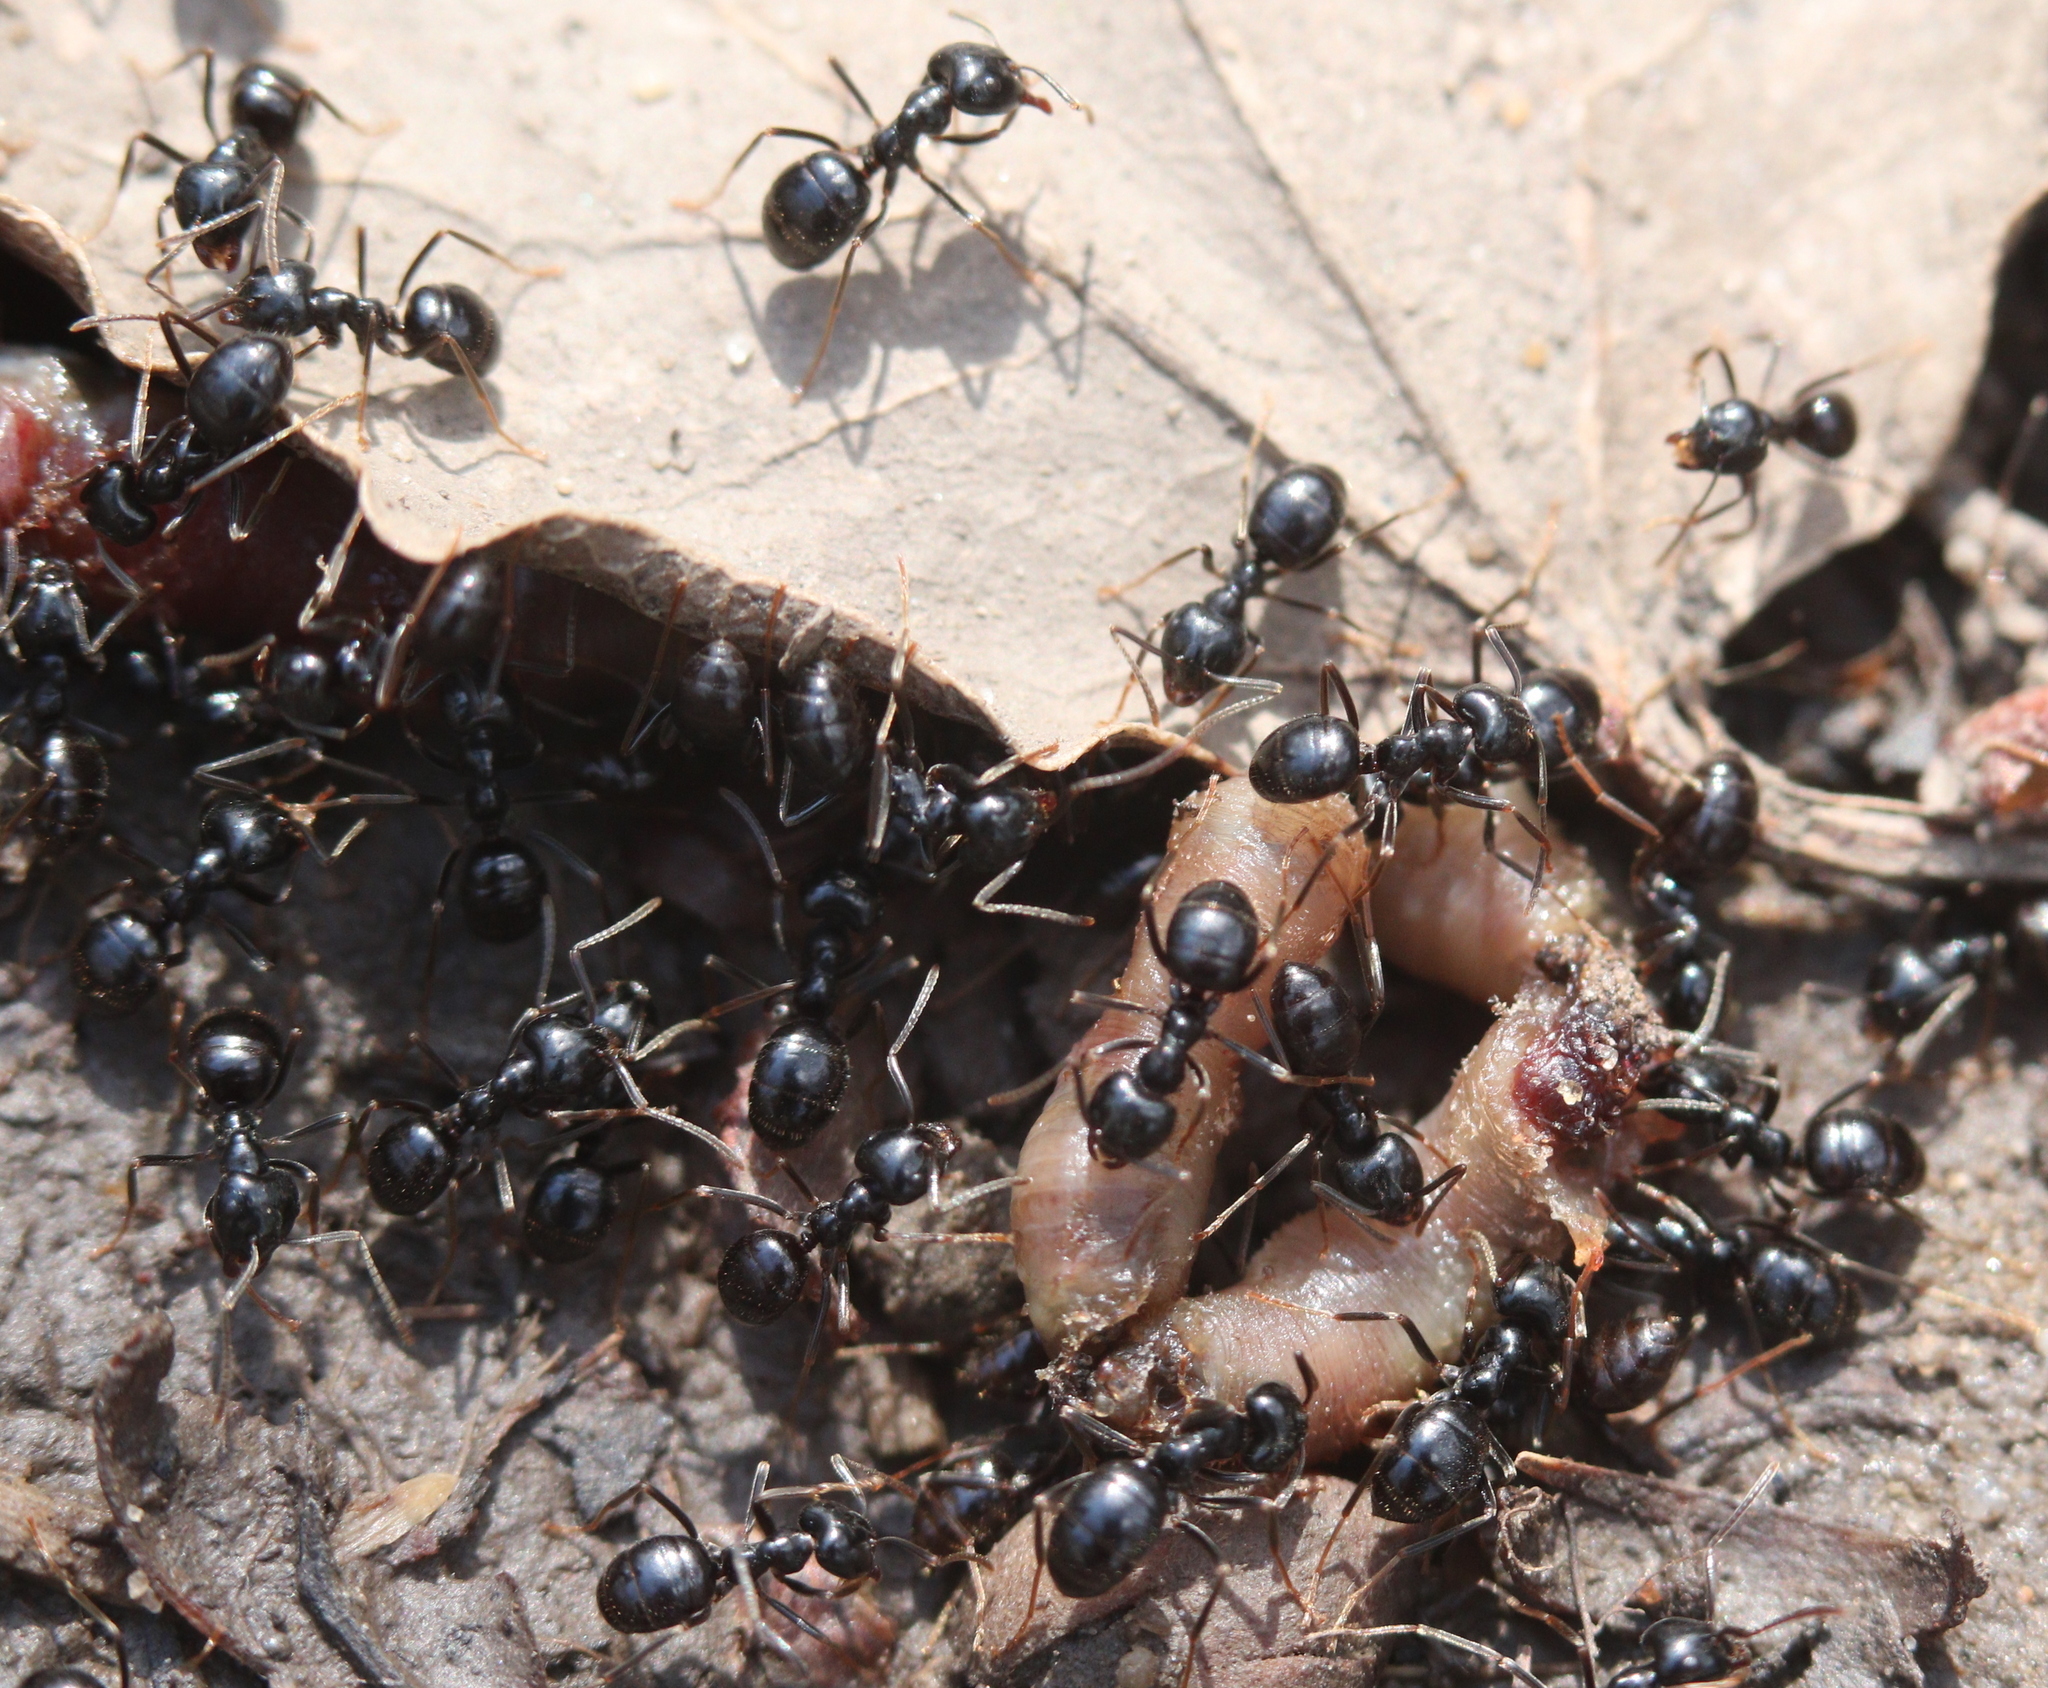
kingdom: Animalia
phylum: Arthropoda
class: Insecta
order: Hymenoptera
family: Formicidae
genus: Lasius
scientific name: Lasius fuliginosus
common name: Jet ant
